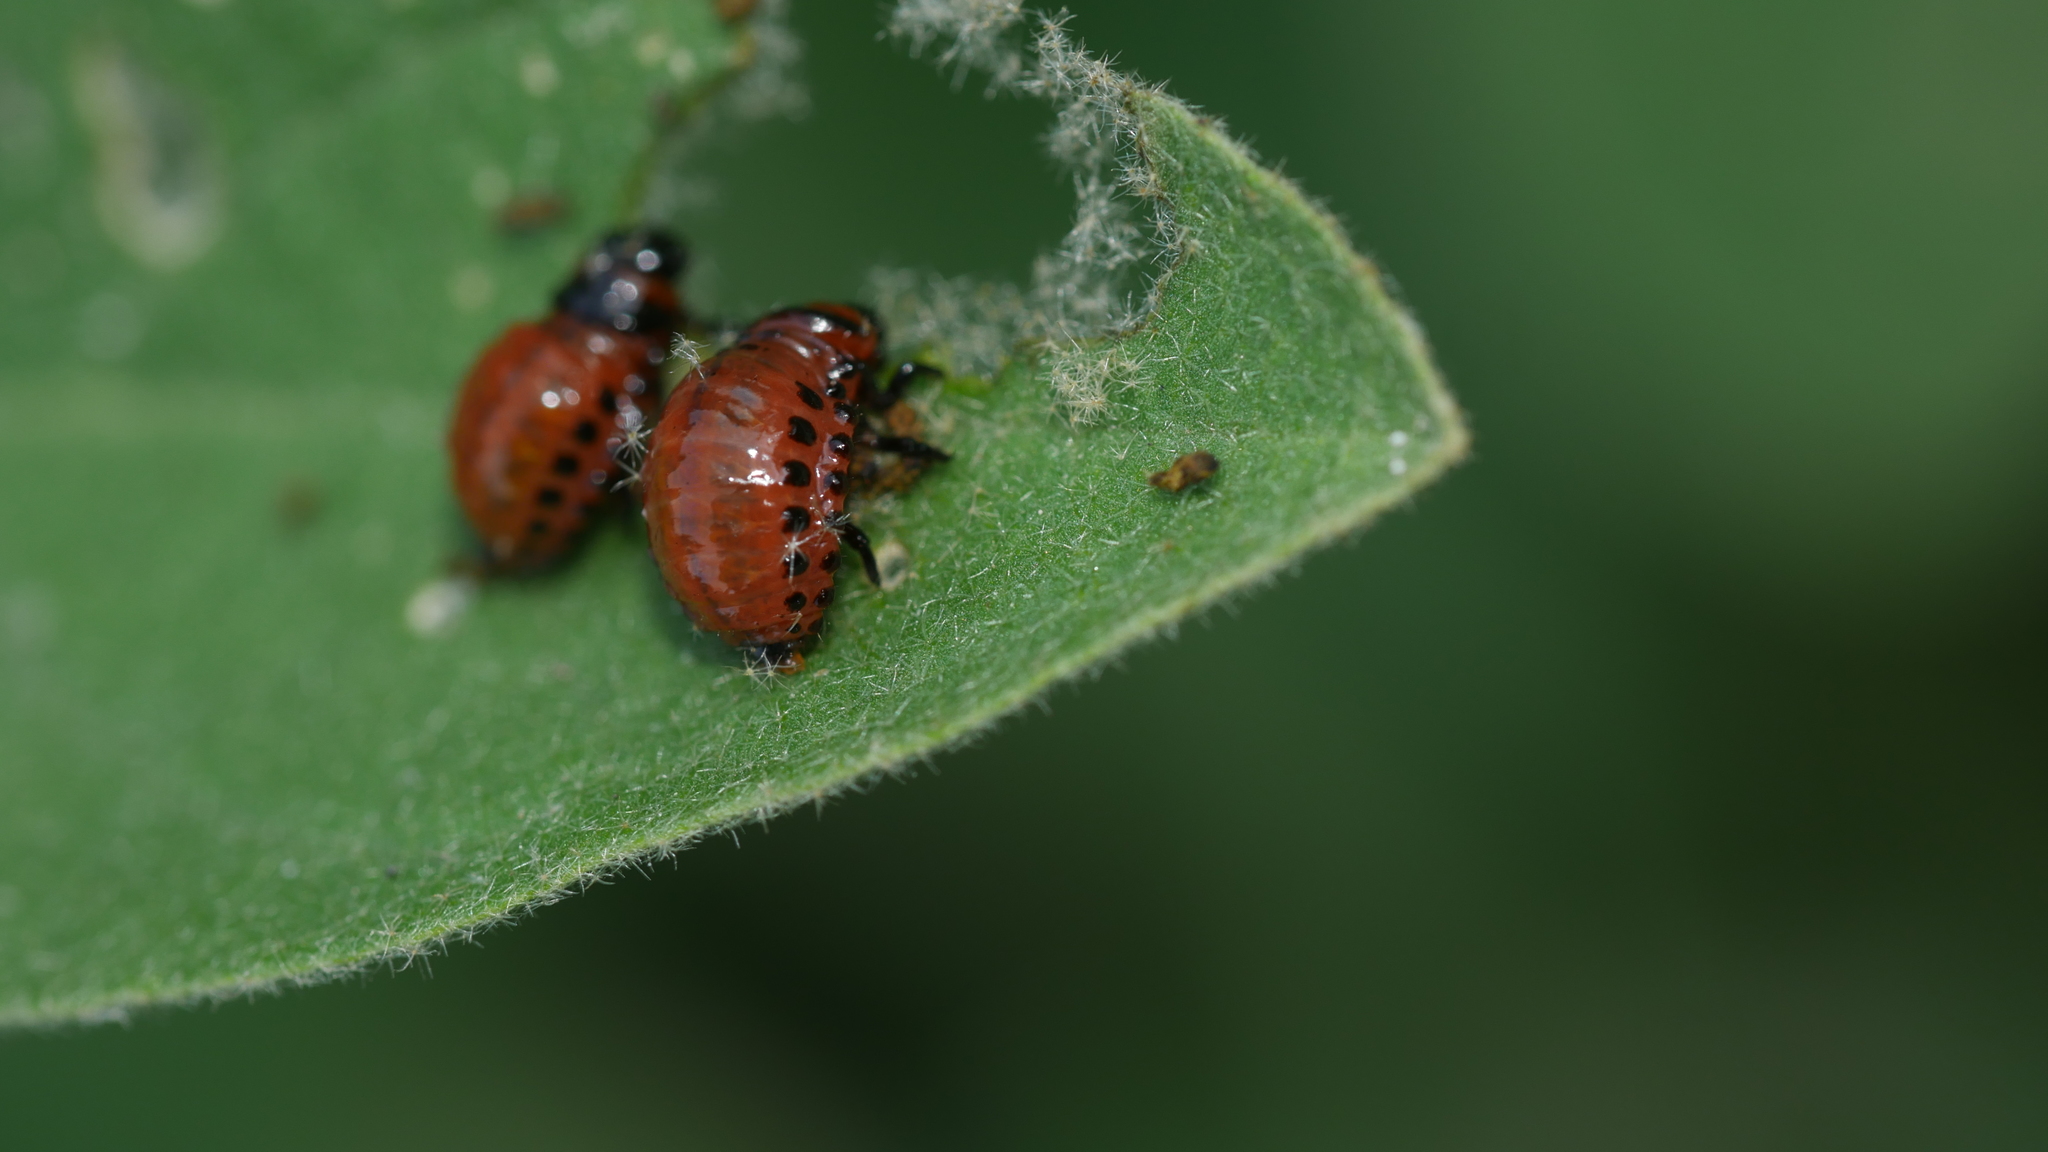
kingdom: Animalia
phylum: Arthropoda
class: Insecta
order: Coleoptera
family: Chrysomelidae
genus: Leptinotarsa
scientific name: Leptinotarsa decemlineata
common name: Colorado potato beetle
